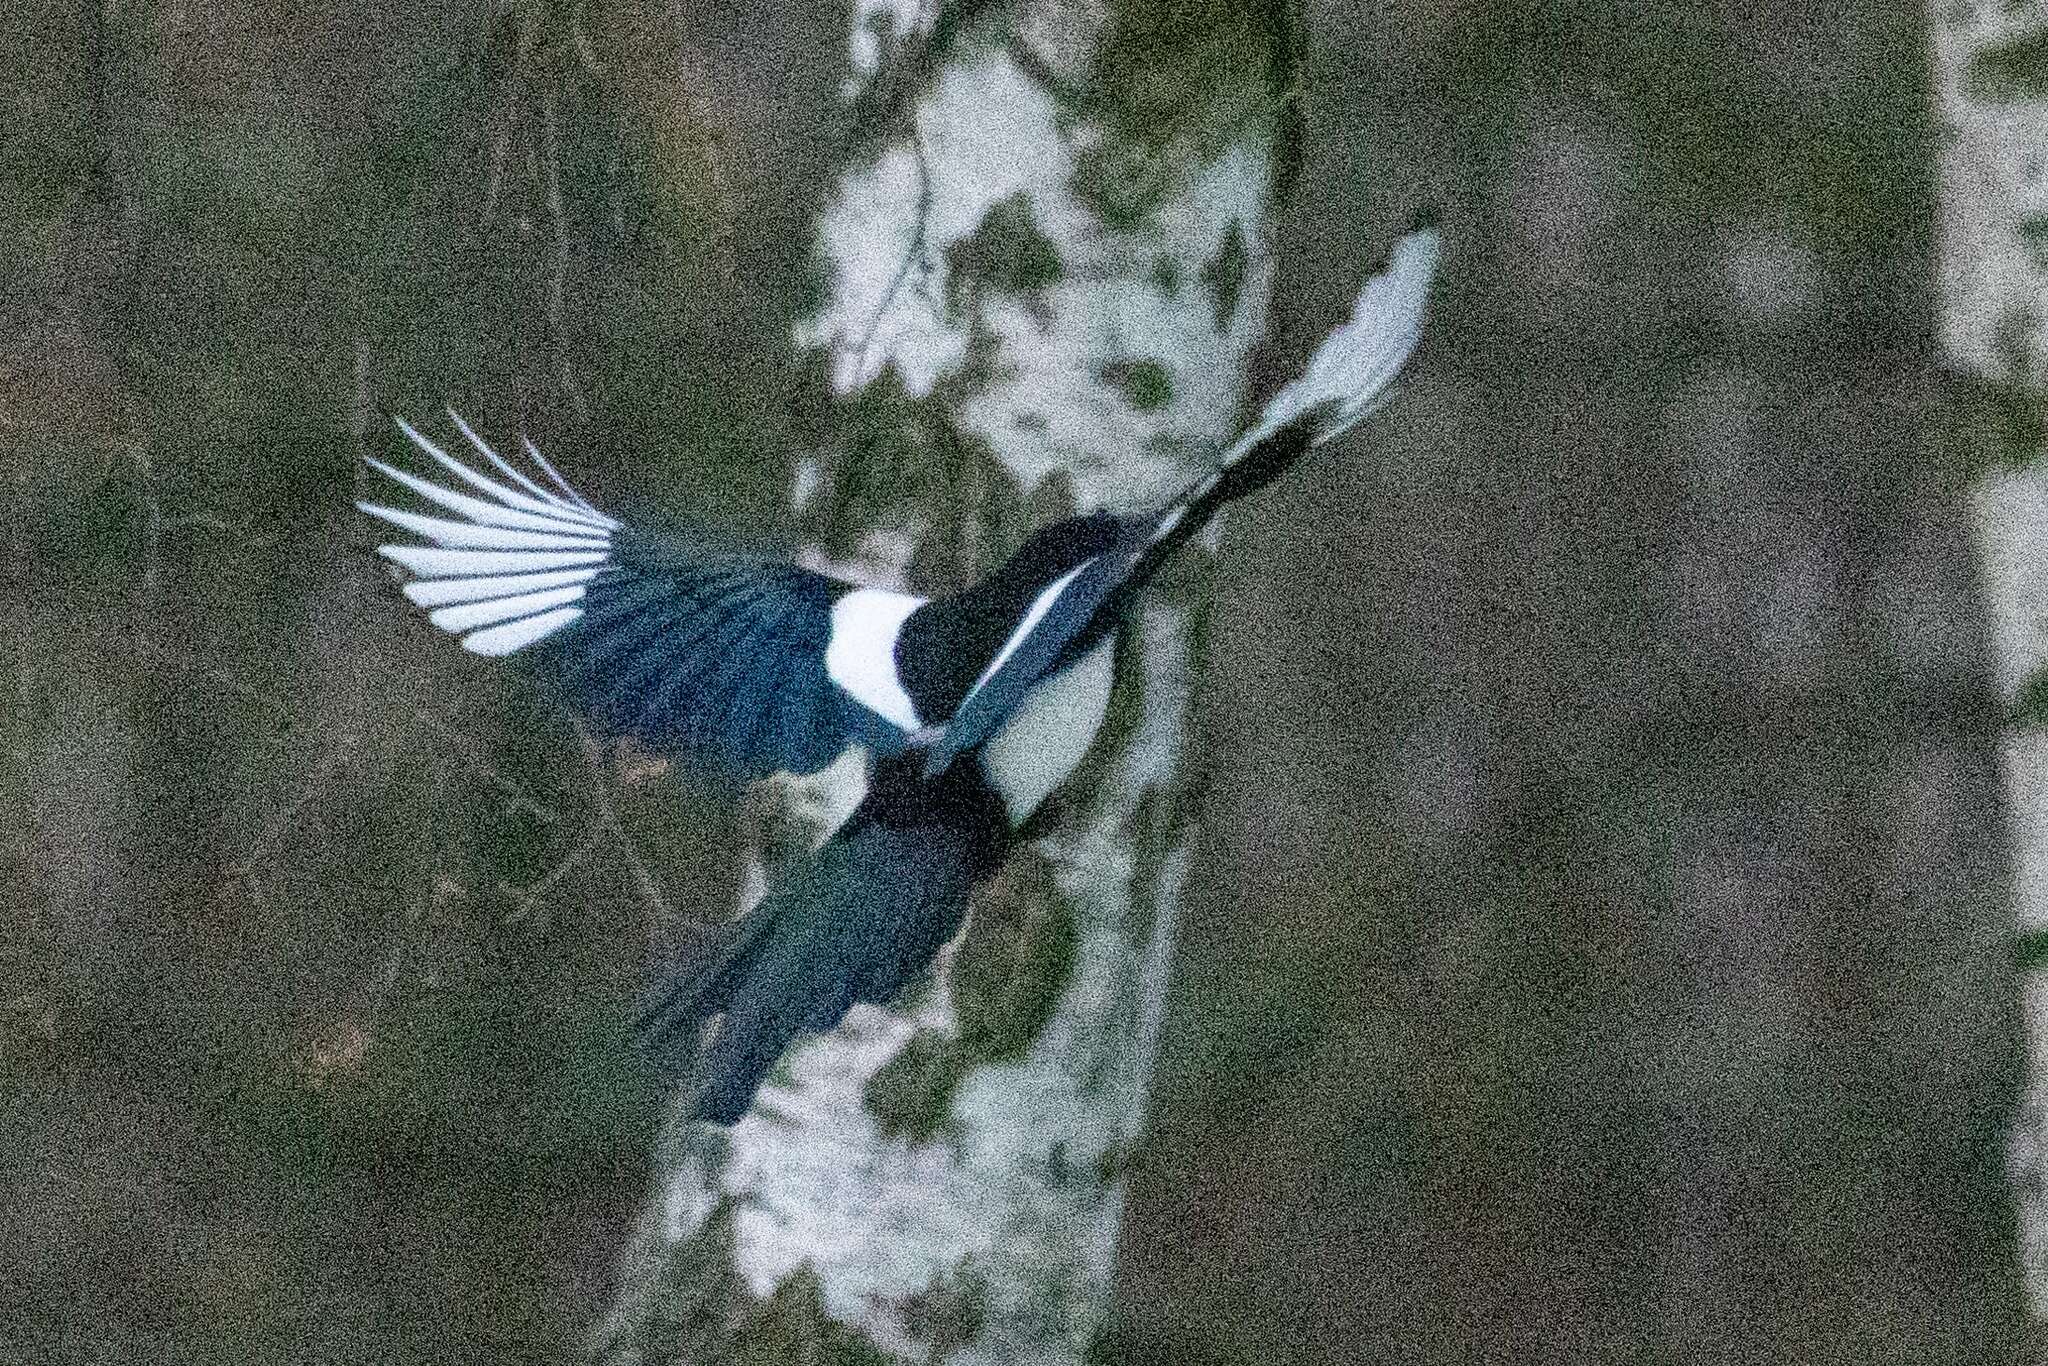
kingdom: Animalia
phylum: Chordata
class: Aves
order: Passeriformes
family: Corvidae
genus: Pica
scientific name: Pica pica
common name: Eurasian magpie
